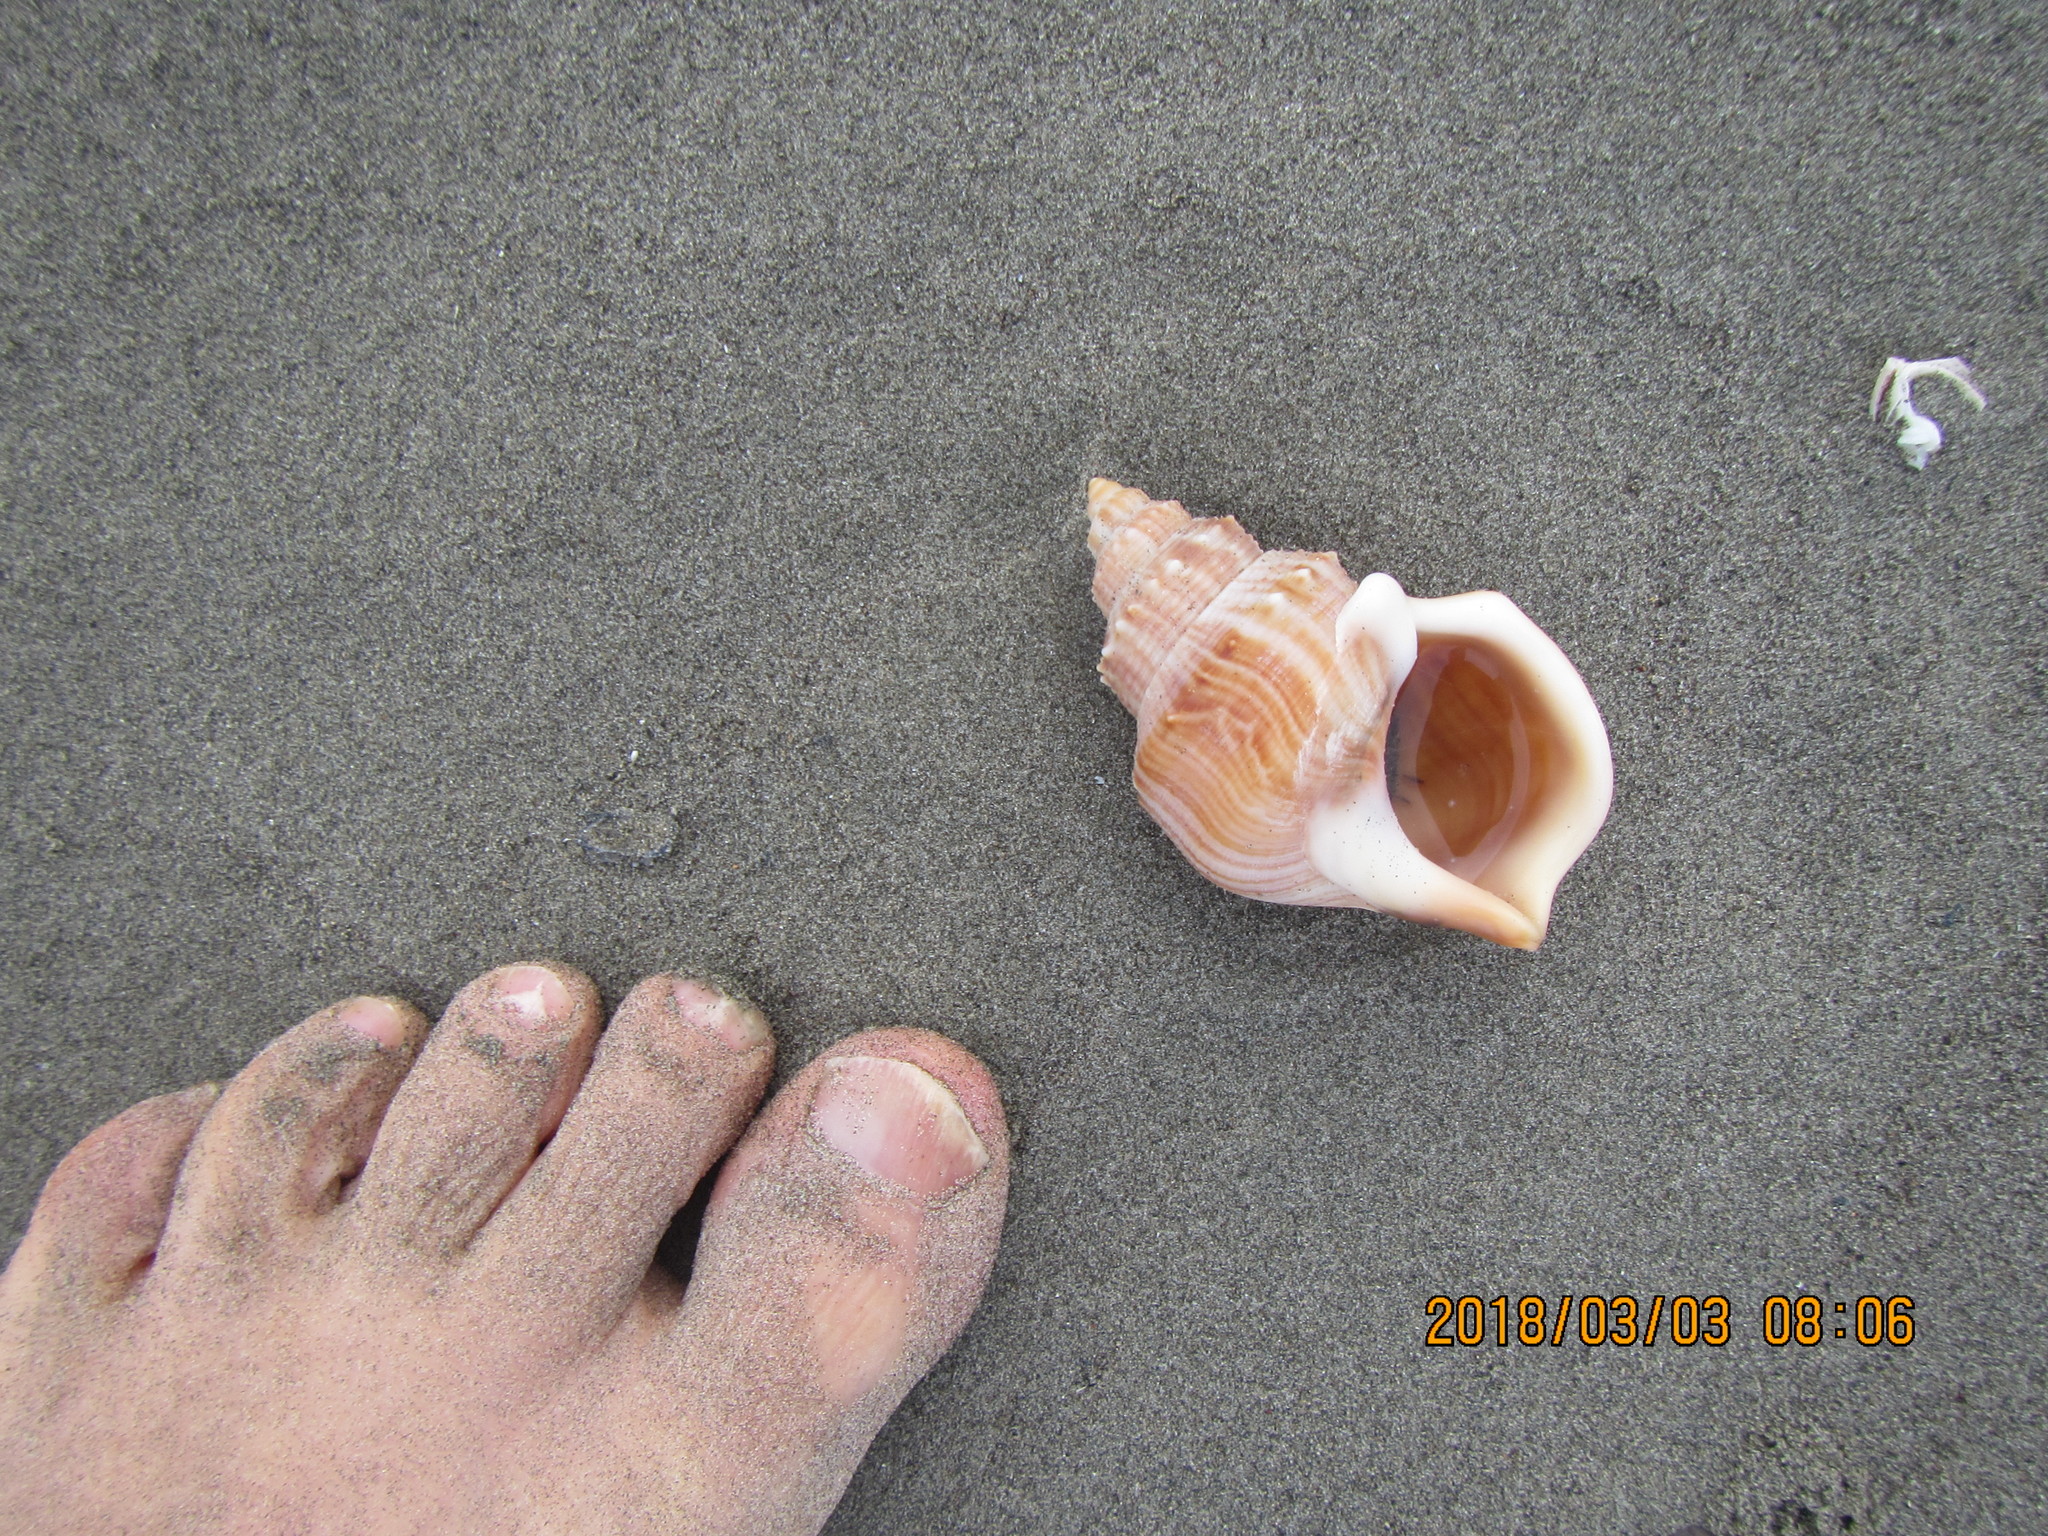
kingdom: Animalia
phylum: Mollusca
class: Gastropoda
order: Littorinimorpha
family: Struthiolariidae
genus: Struthiolaria
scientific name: Struthiolaria papulosa
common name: Large ostrich foot
